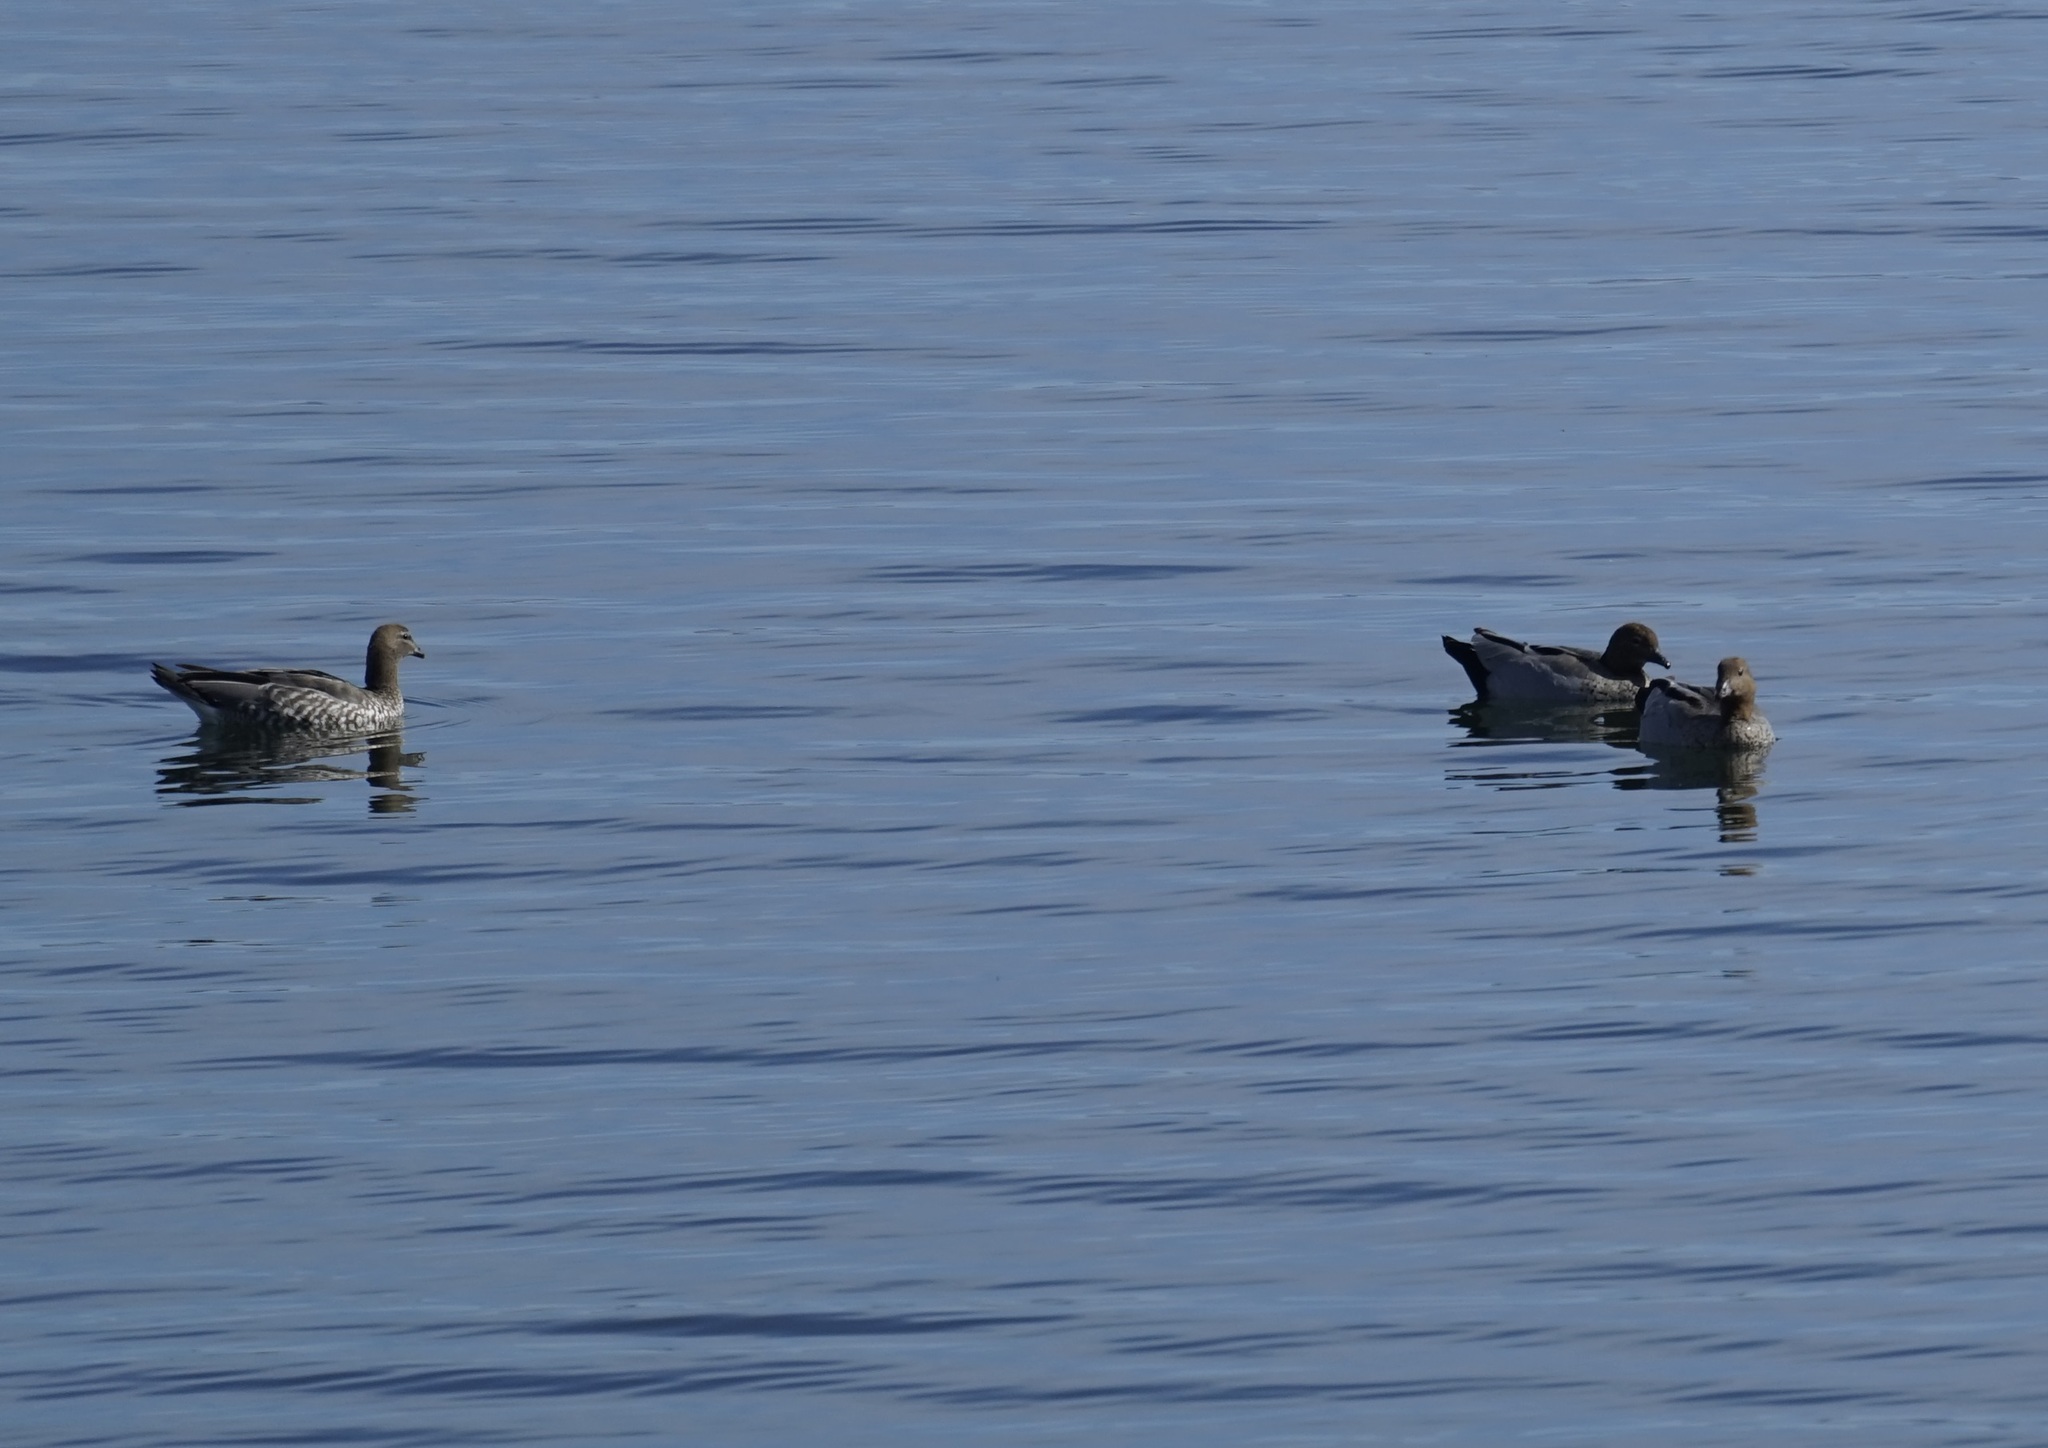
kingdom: Animalia
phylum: Chordata
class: Aves
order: Anseriformes
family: Anatidae
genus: Chenonetta
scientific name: Chenonetta jubata
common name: Maned duck
